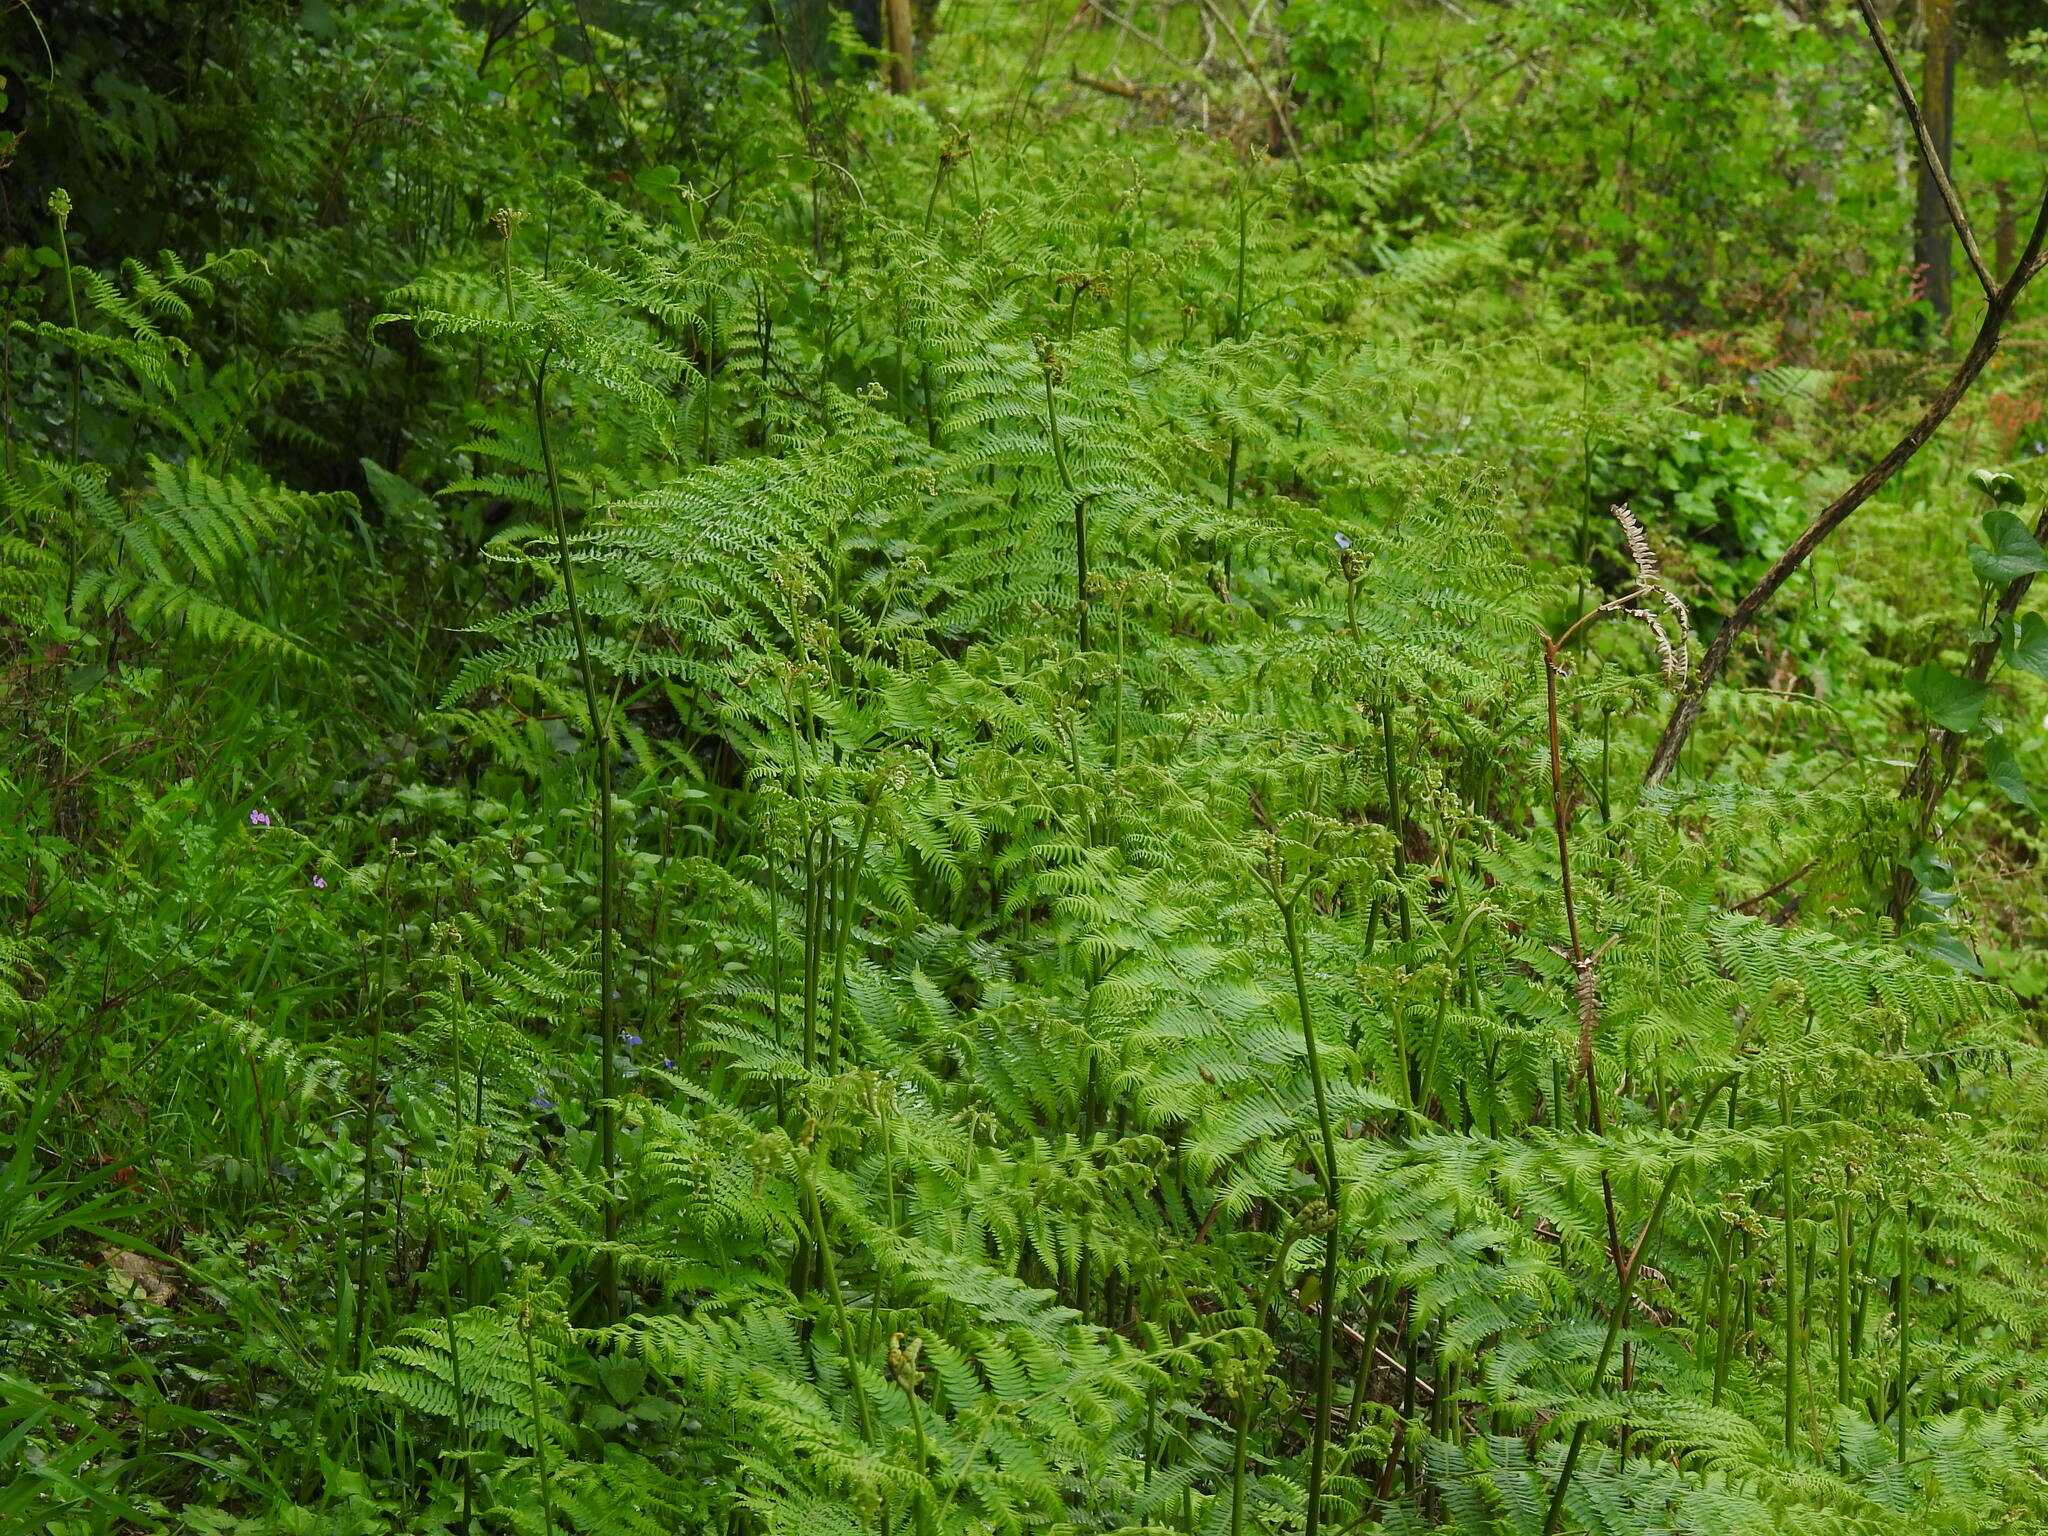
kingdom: Plantae
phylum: Tracheophyta
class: Polypodiopsida
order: Polypodiales
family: Dennstaedtiaceae
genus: Pteridium
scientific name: Pteridium aquilinum
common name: Bracken
